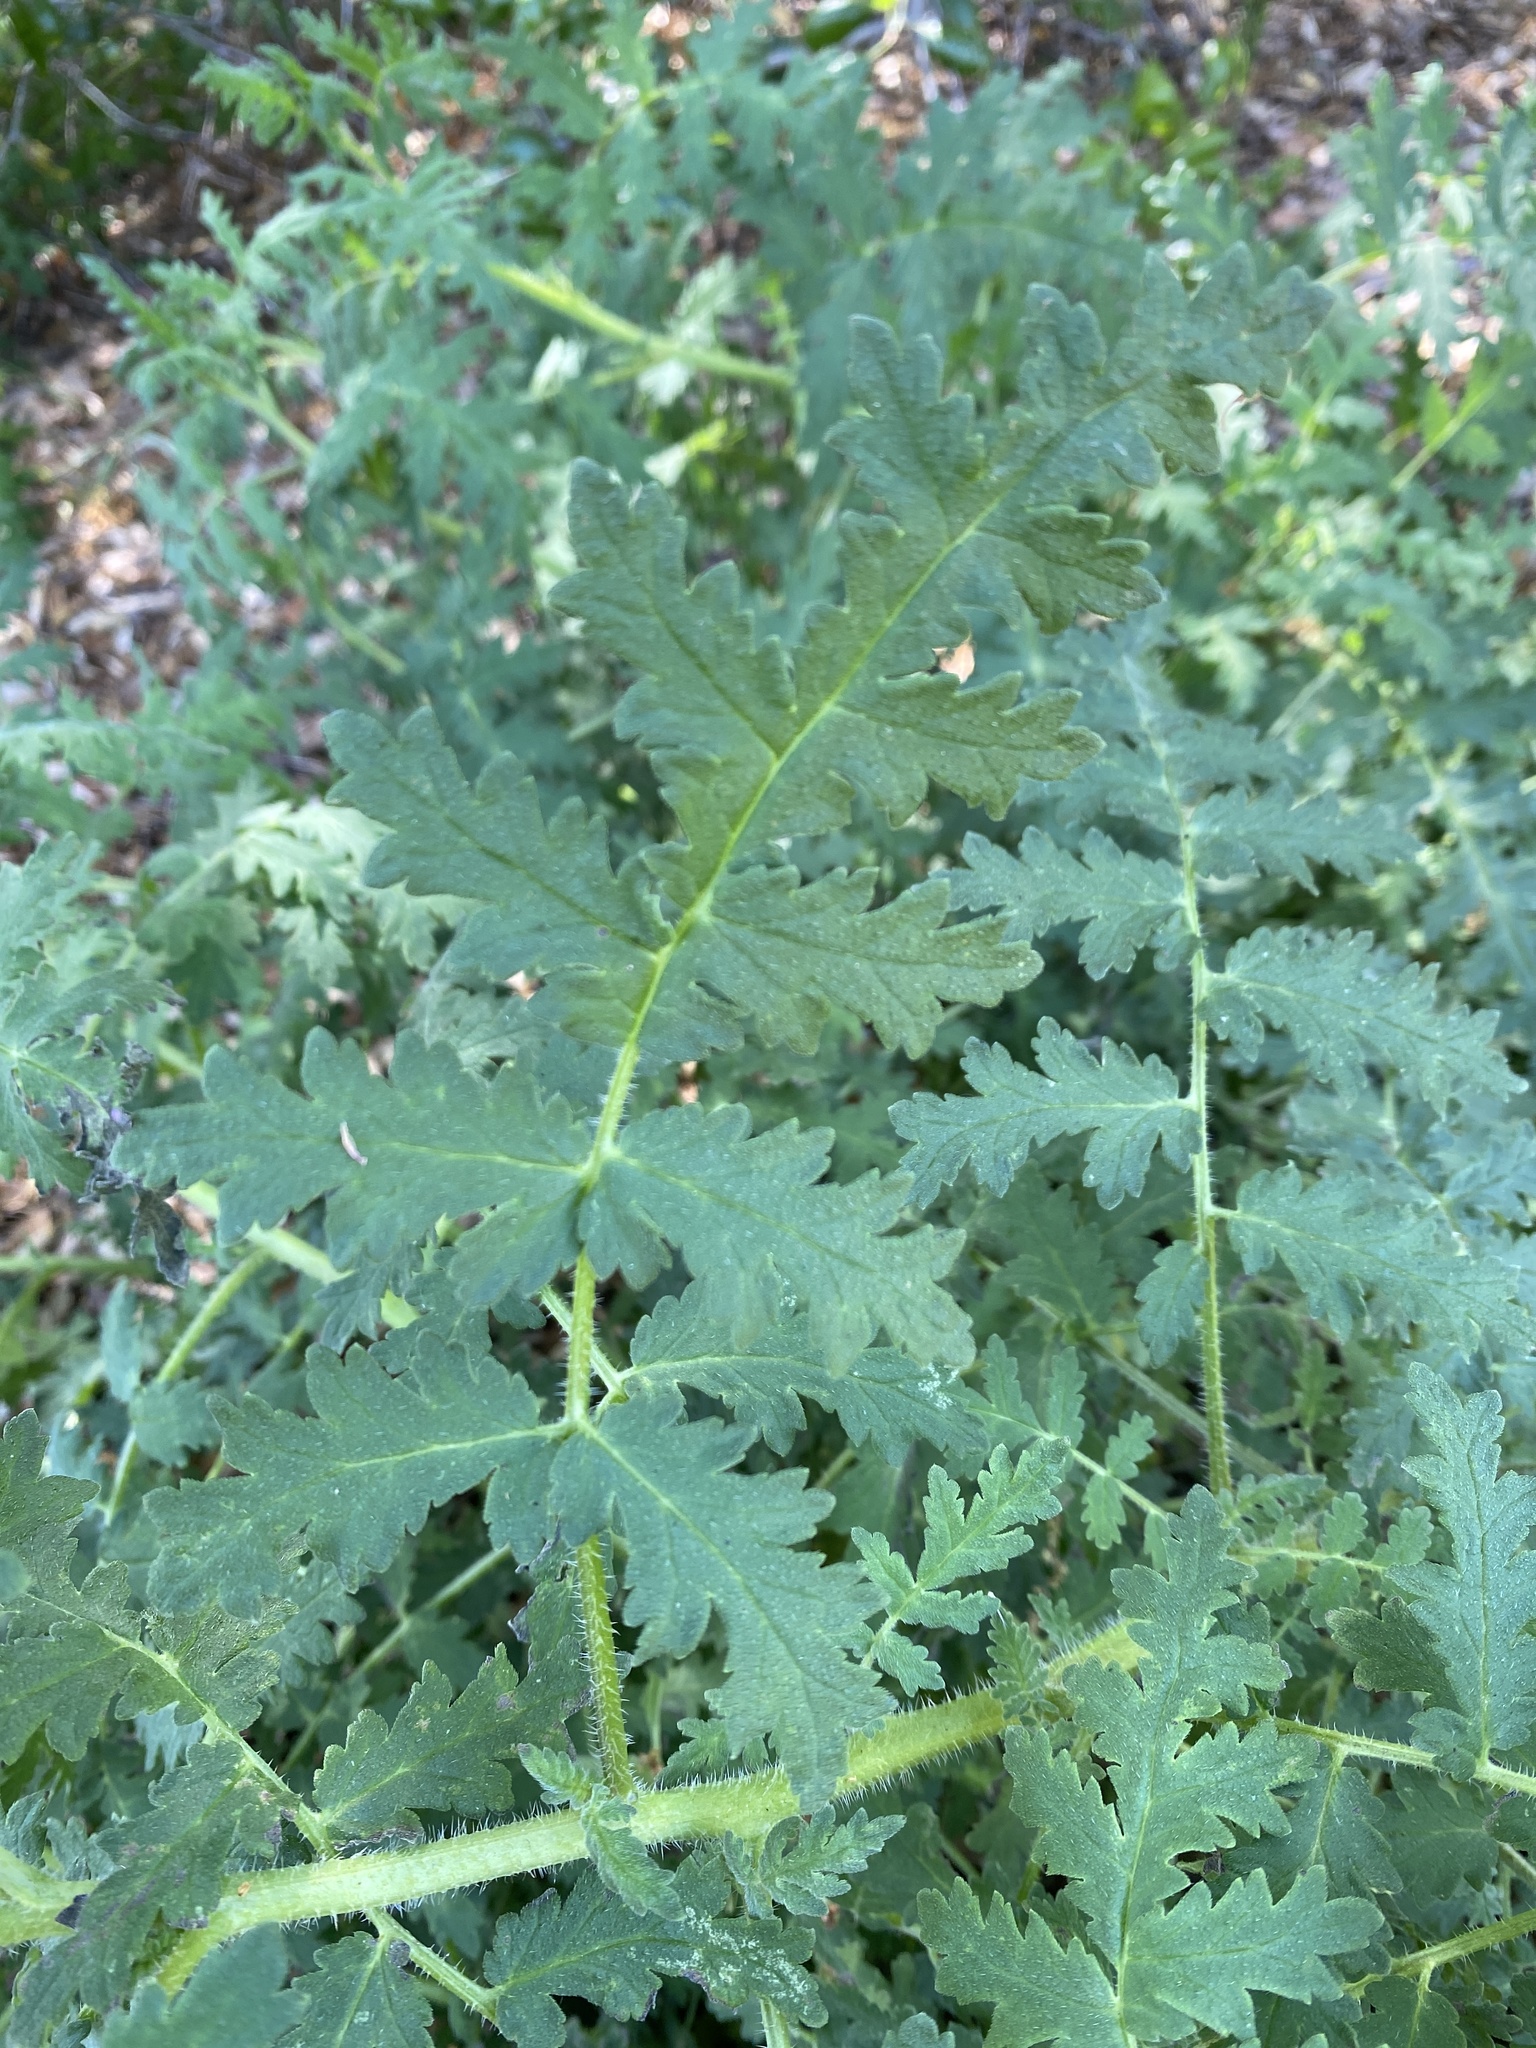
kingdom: Plantae
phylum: Tracheophyta
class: Magnoliopsida
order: Boraginales
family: Hydrophyllaceae
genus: Phacelia
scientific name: Phacelia ramosissima
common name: Branching phacelia
